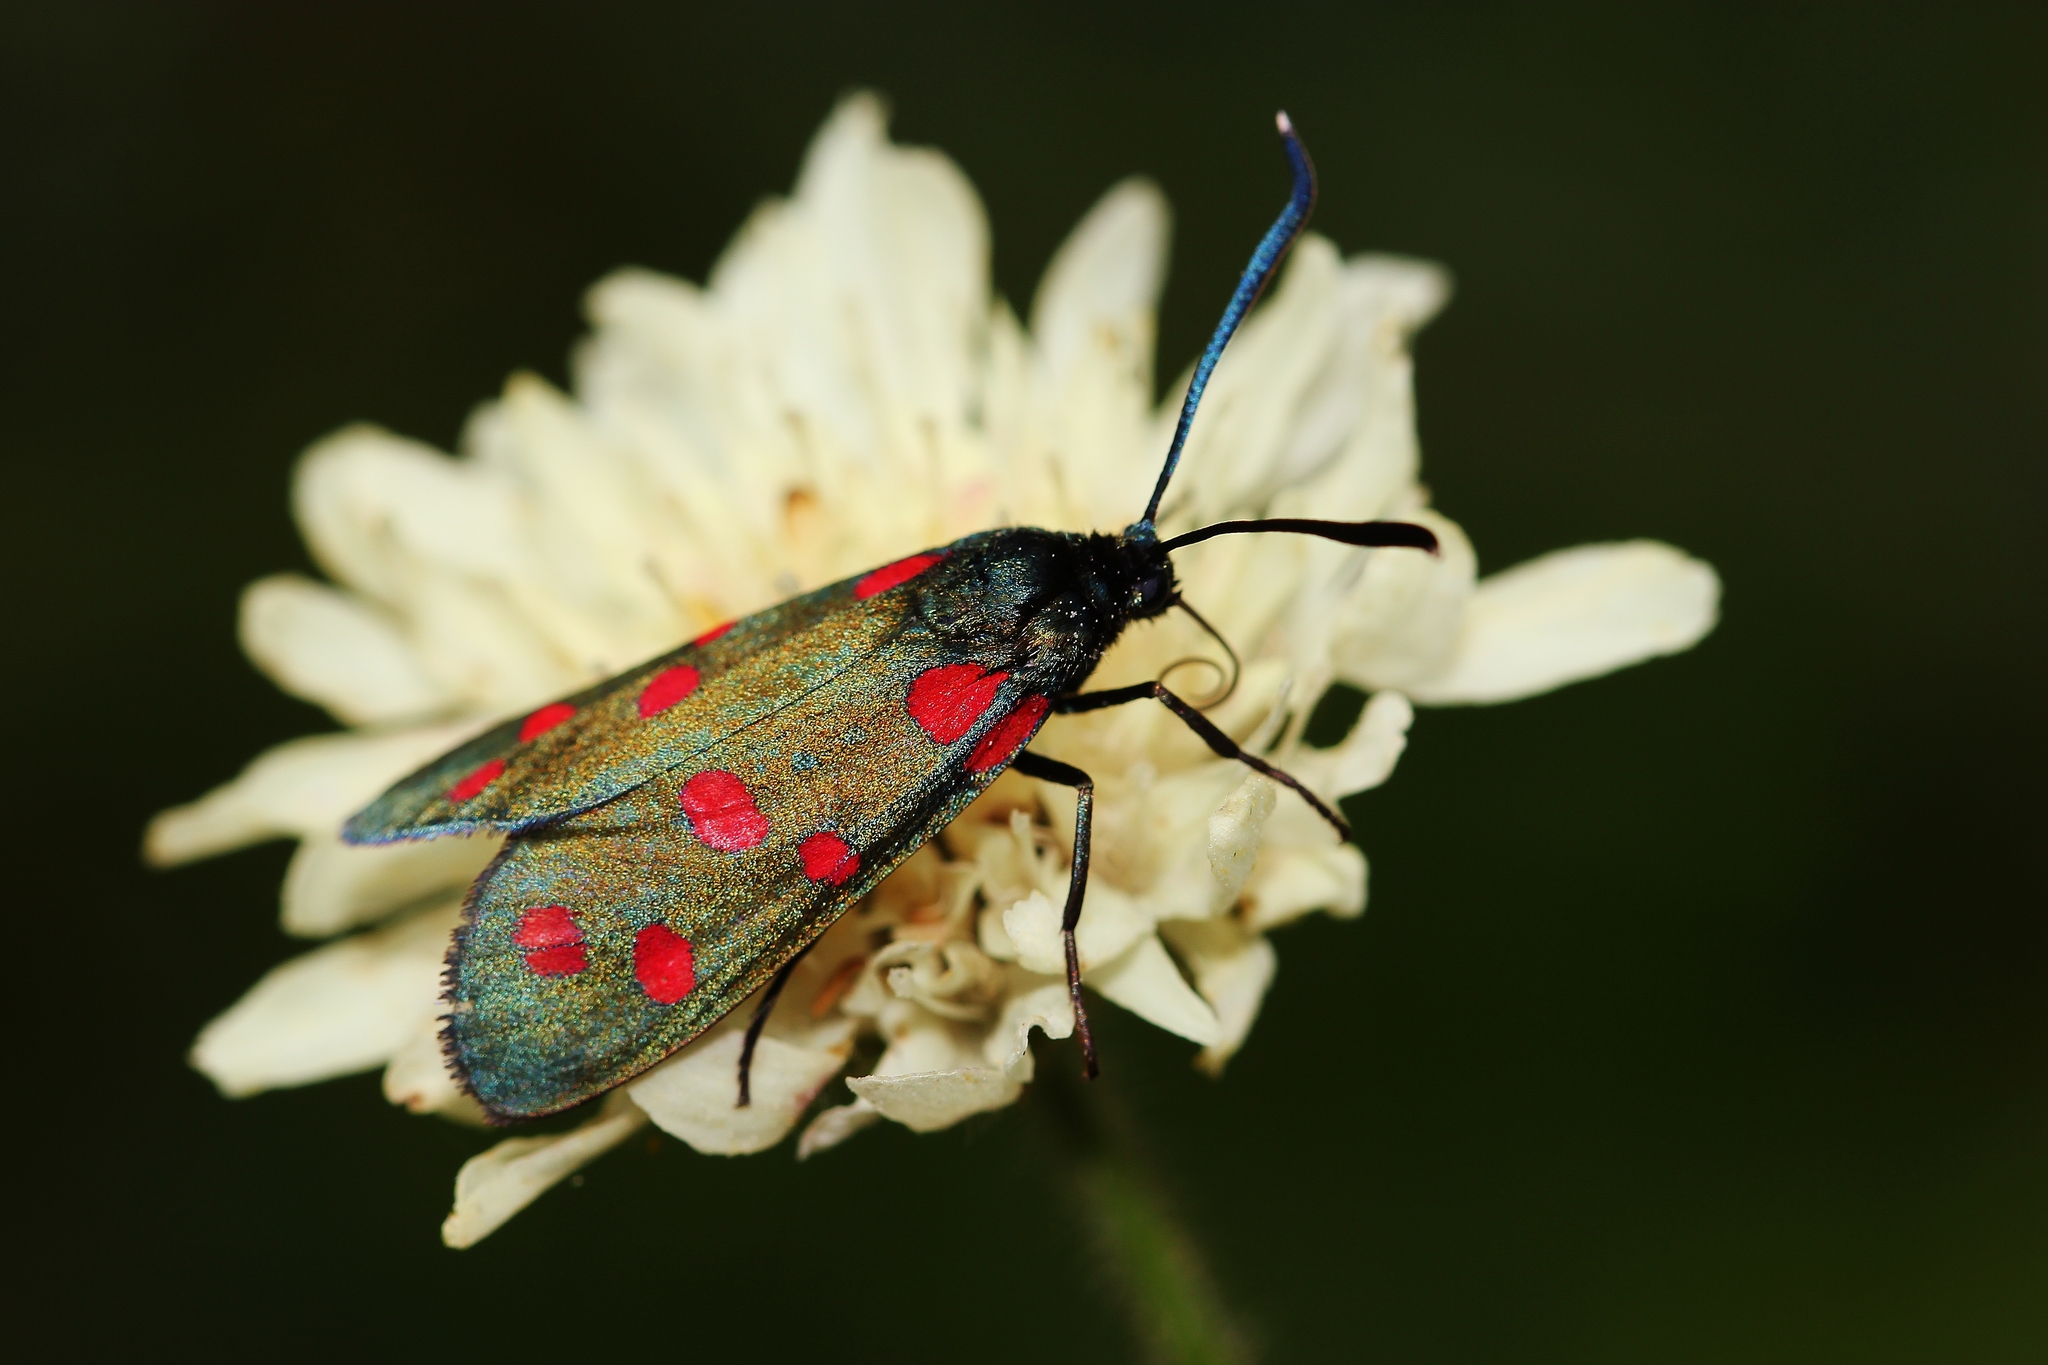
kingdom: Animalia
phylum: Arthropoda
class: Insecta
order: Lepidoptera
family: Zygaenidae
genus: Zygaena
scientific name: Zygaena dorycnii
